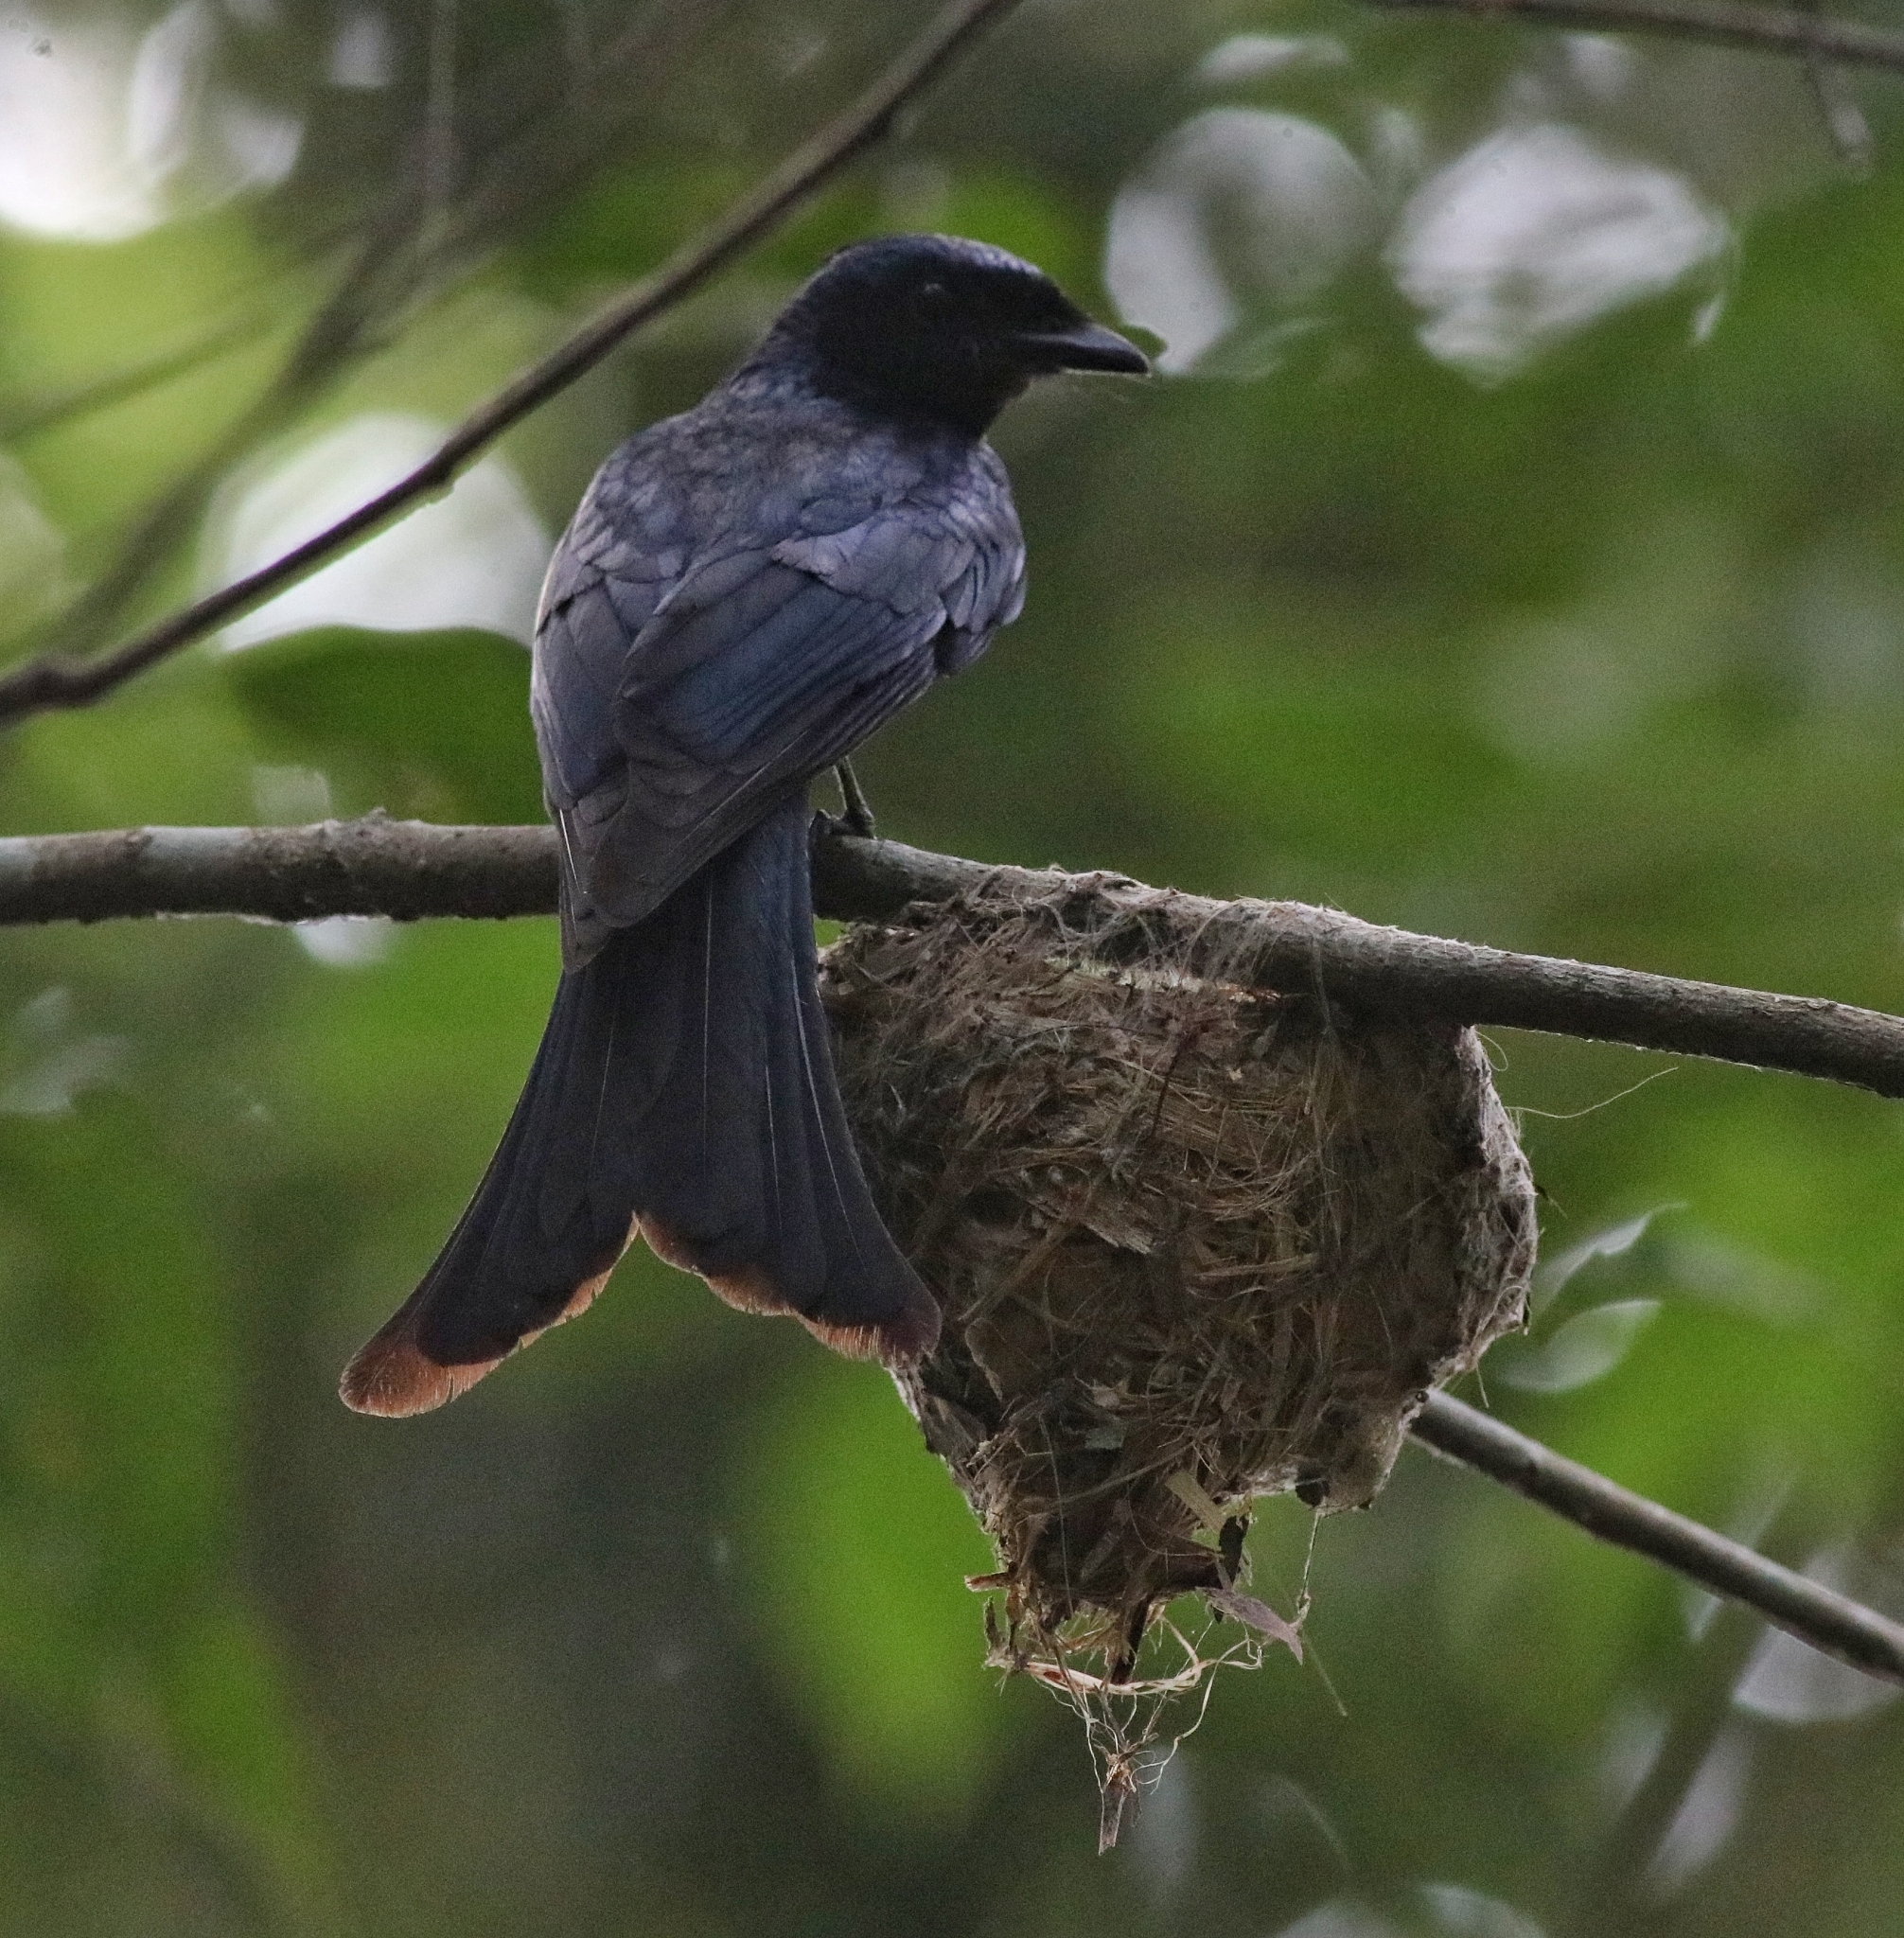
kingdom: Animalia
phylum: Chordata
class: Aves
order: Passeriformes
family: Dicruridae
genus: Dicrurus
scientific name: Dicrurus aeneus
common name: Bronzed drongo
